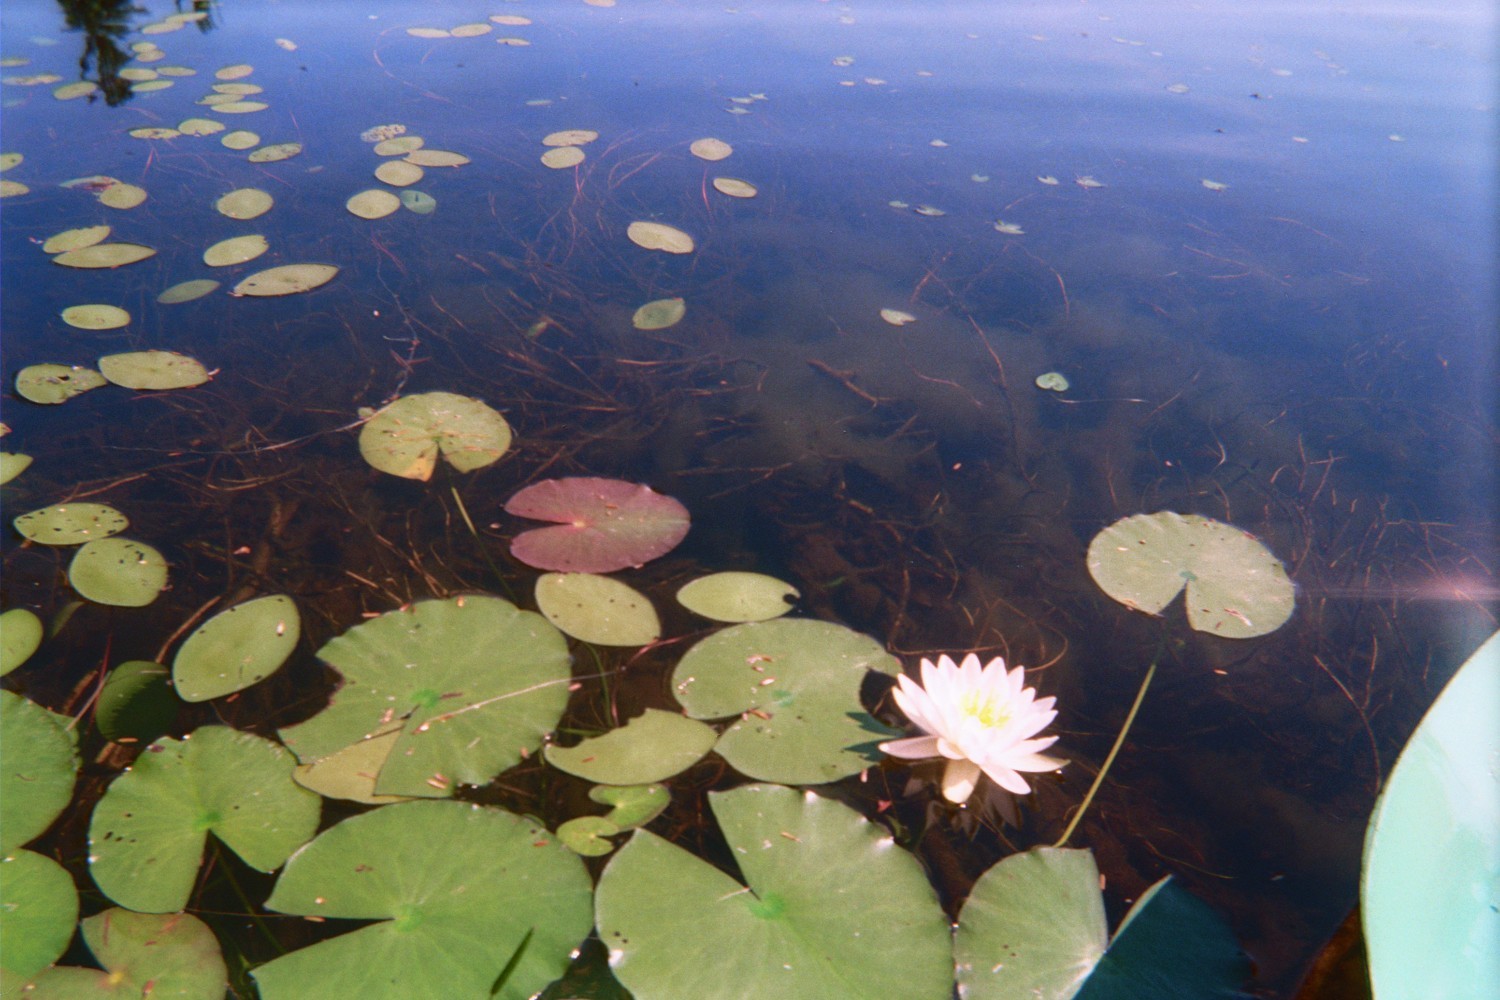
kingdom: Plantae
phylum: Tracheophyta
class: Magnoliopsida
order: Nymphaeales
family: Nymphaeaceae
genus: Nymphaea
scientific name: Nymphaea odorata
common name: Fragrant water-lily
